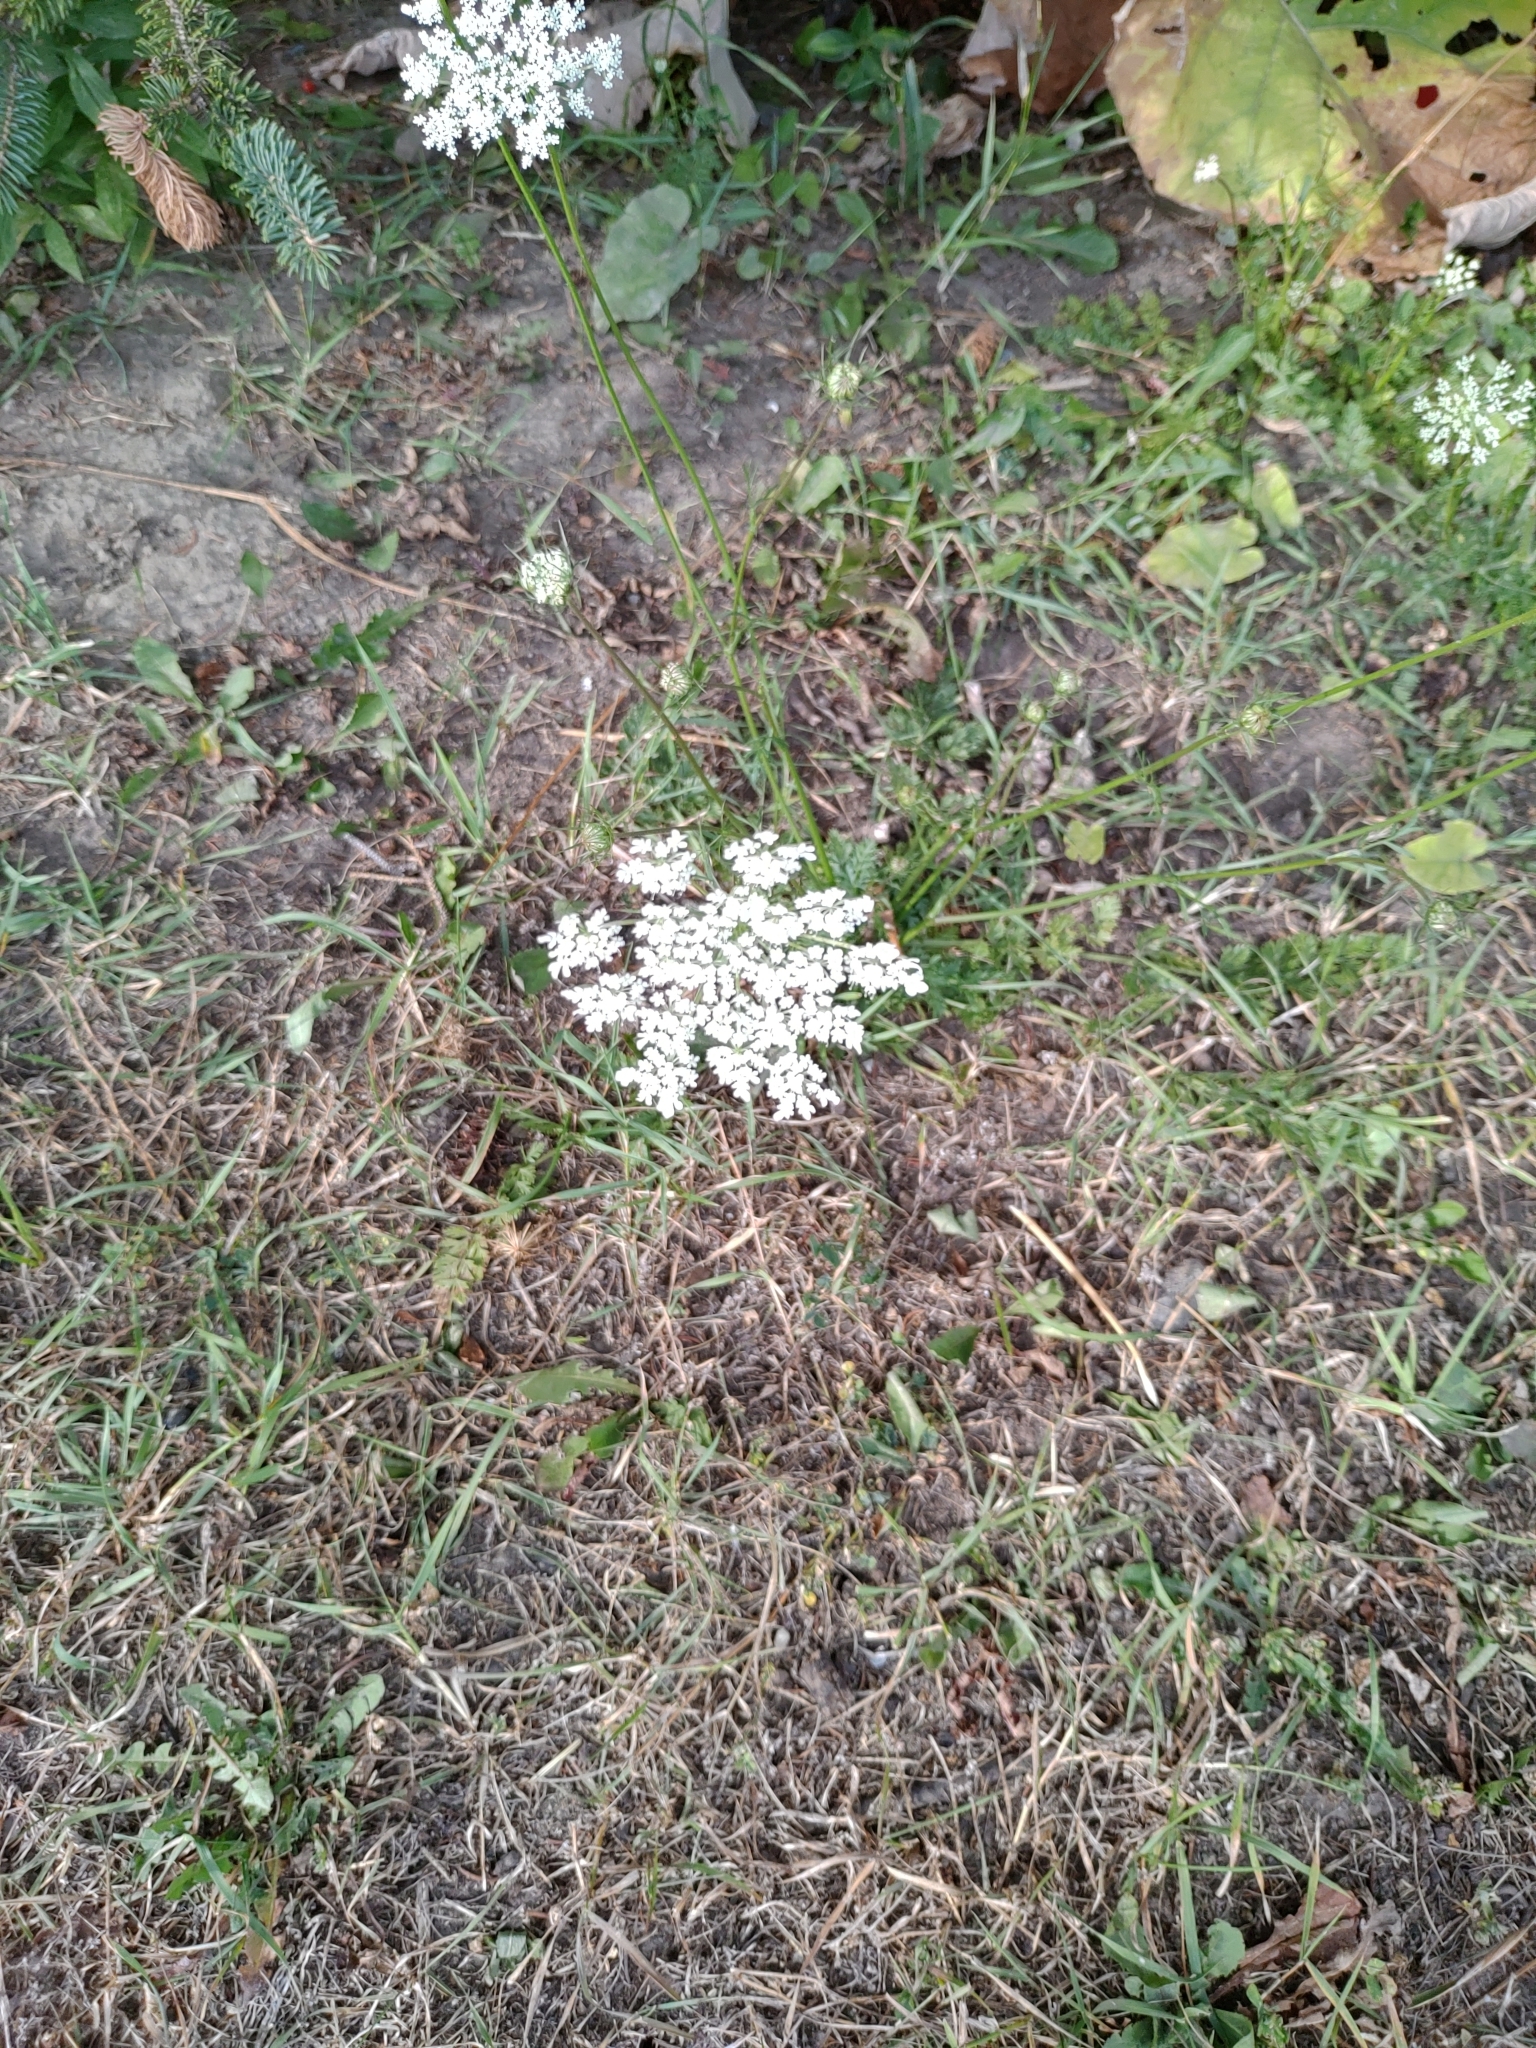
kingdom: Plantae
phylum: Tracheophyta
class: Magnoliopsida
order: Apiales
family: Apiaceae
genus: Daucus
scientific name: Daucus carota
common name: Wild carrot
